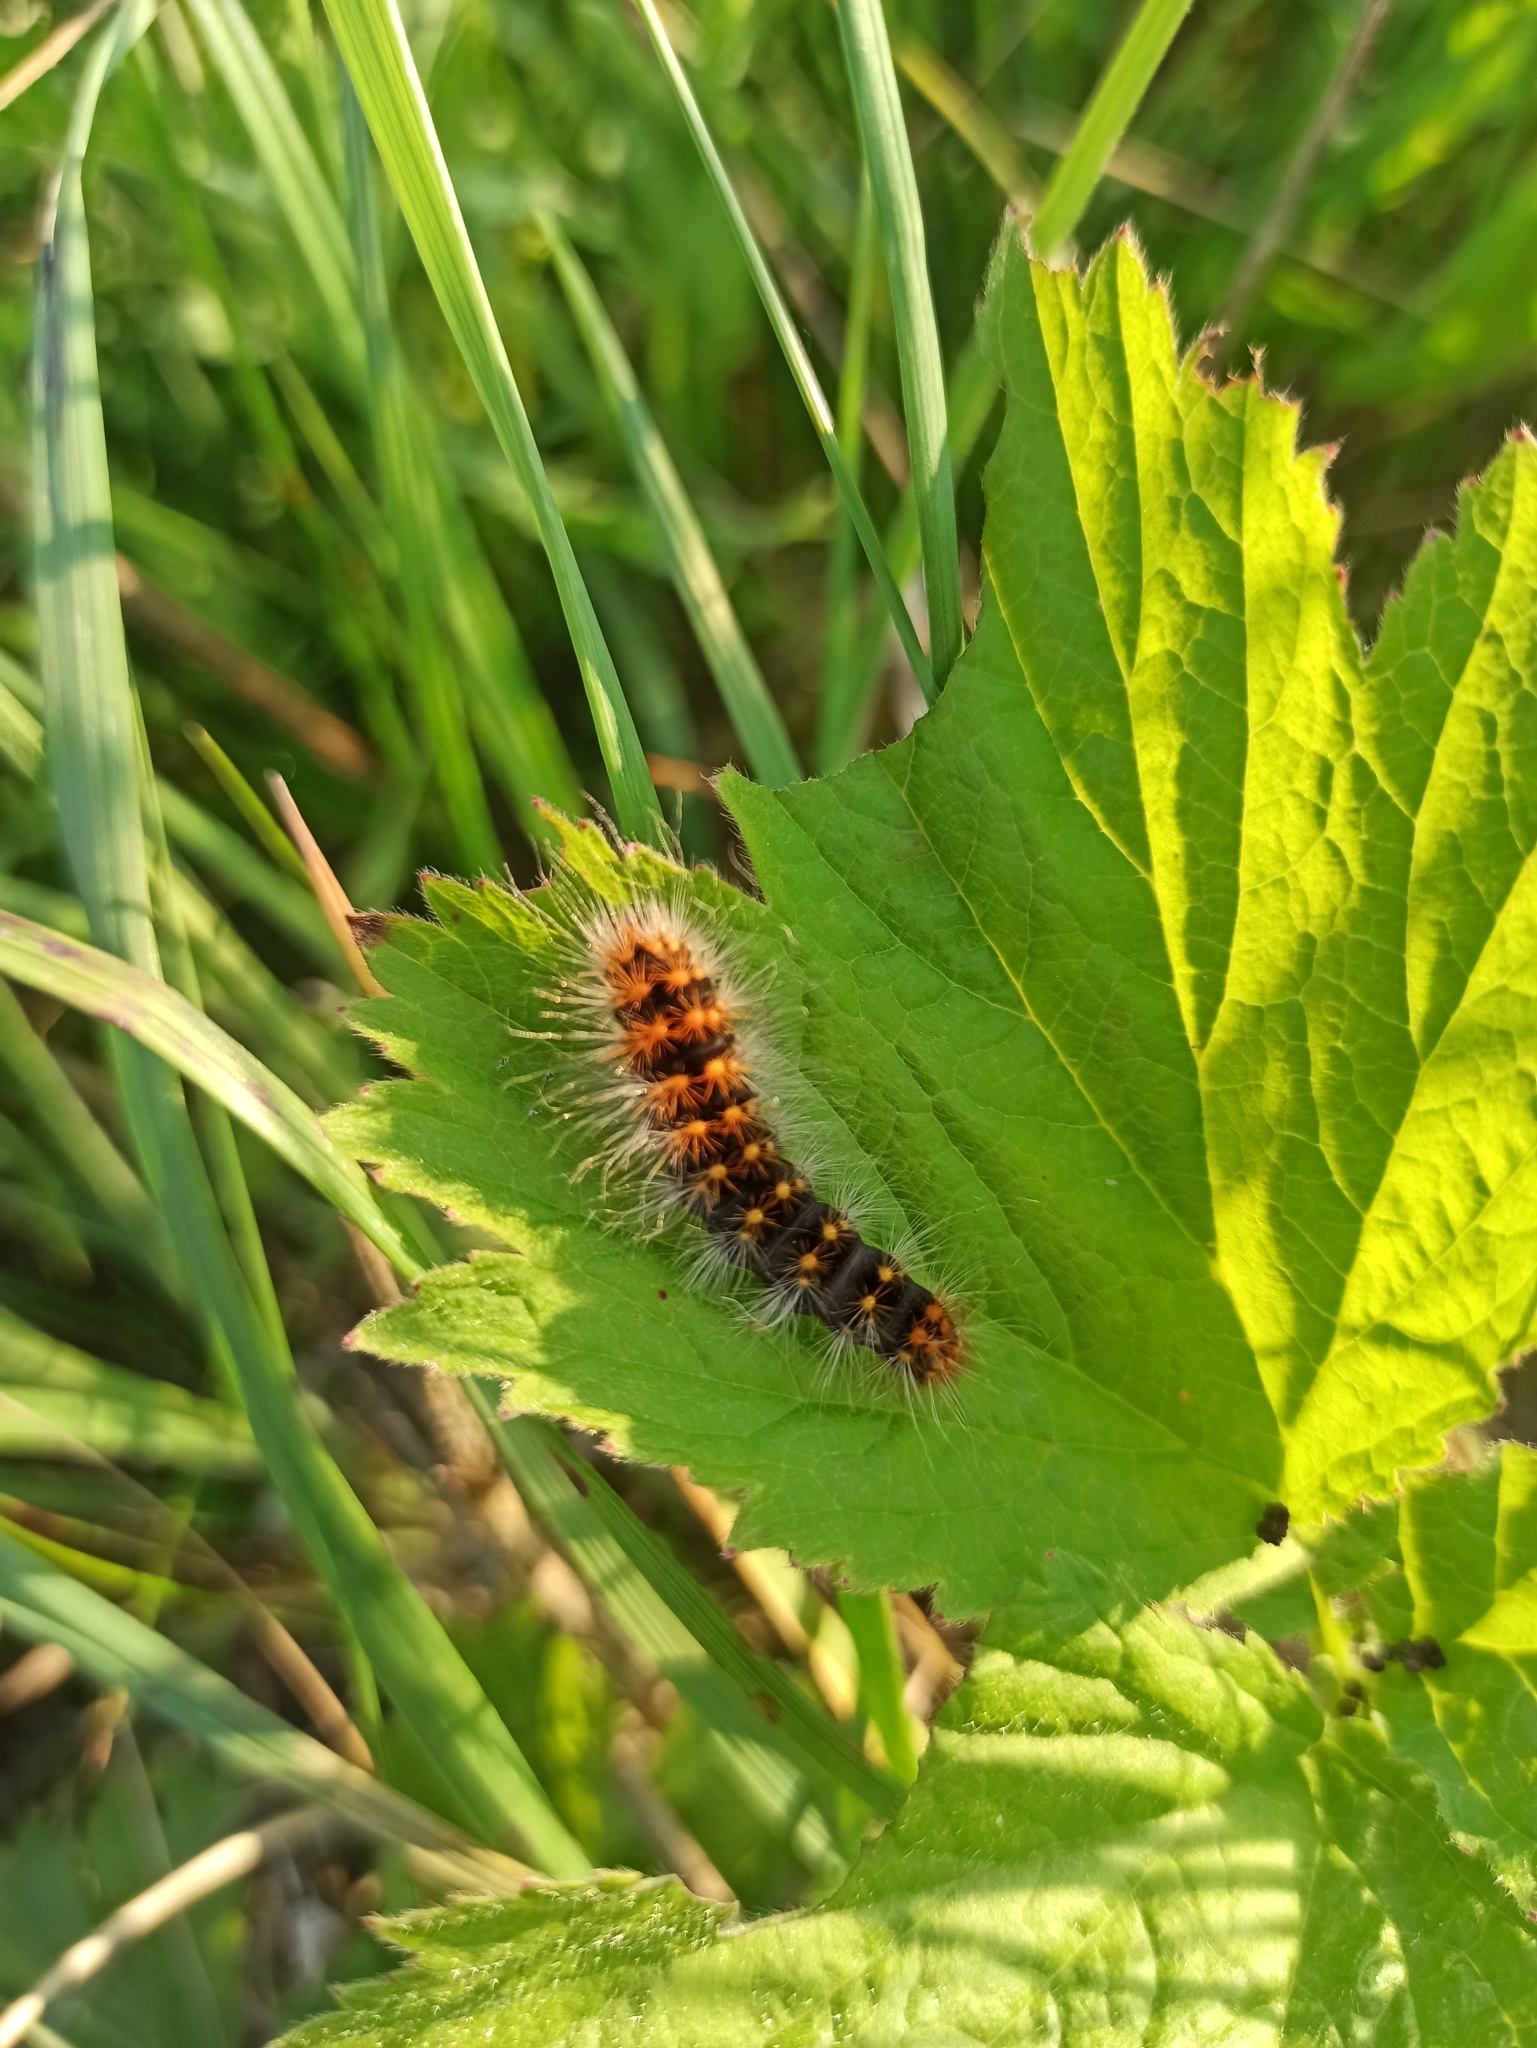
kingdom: Animalia
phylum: Arthropoda
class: Insecta
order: Lepidoptera
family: Noctuidae
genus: Acronicta
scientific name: Acronicta auricoma
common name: Scarce dagger
